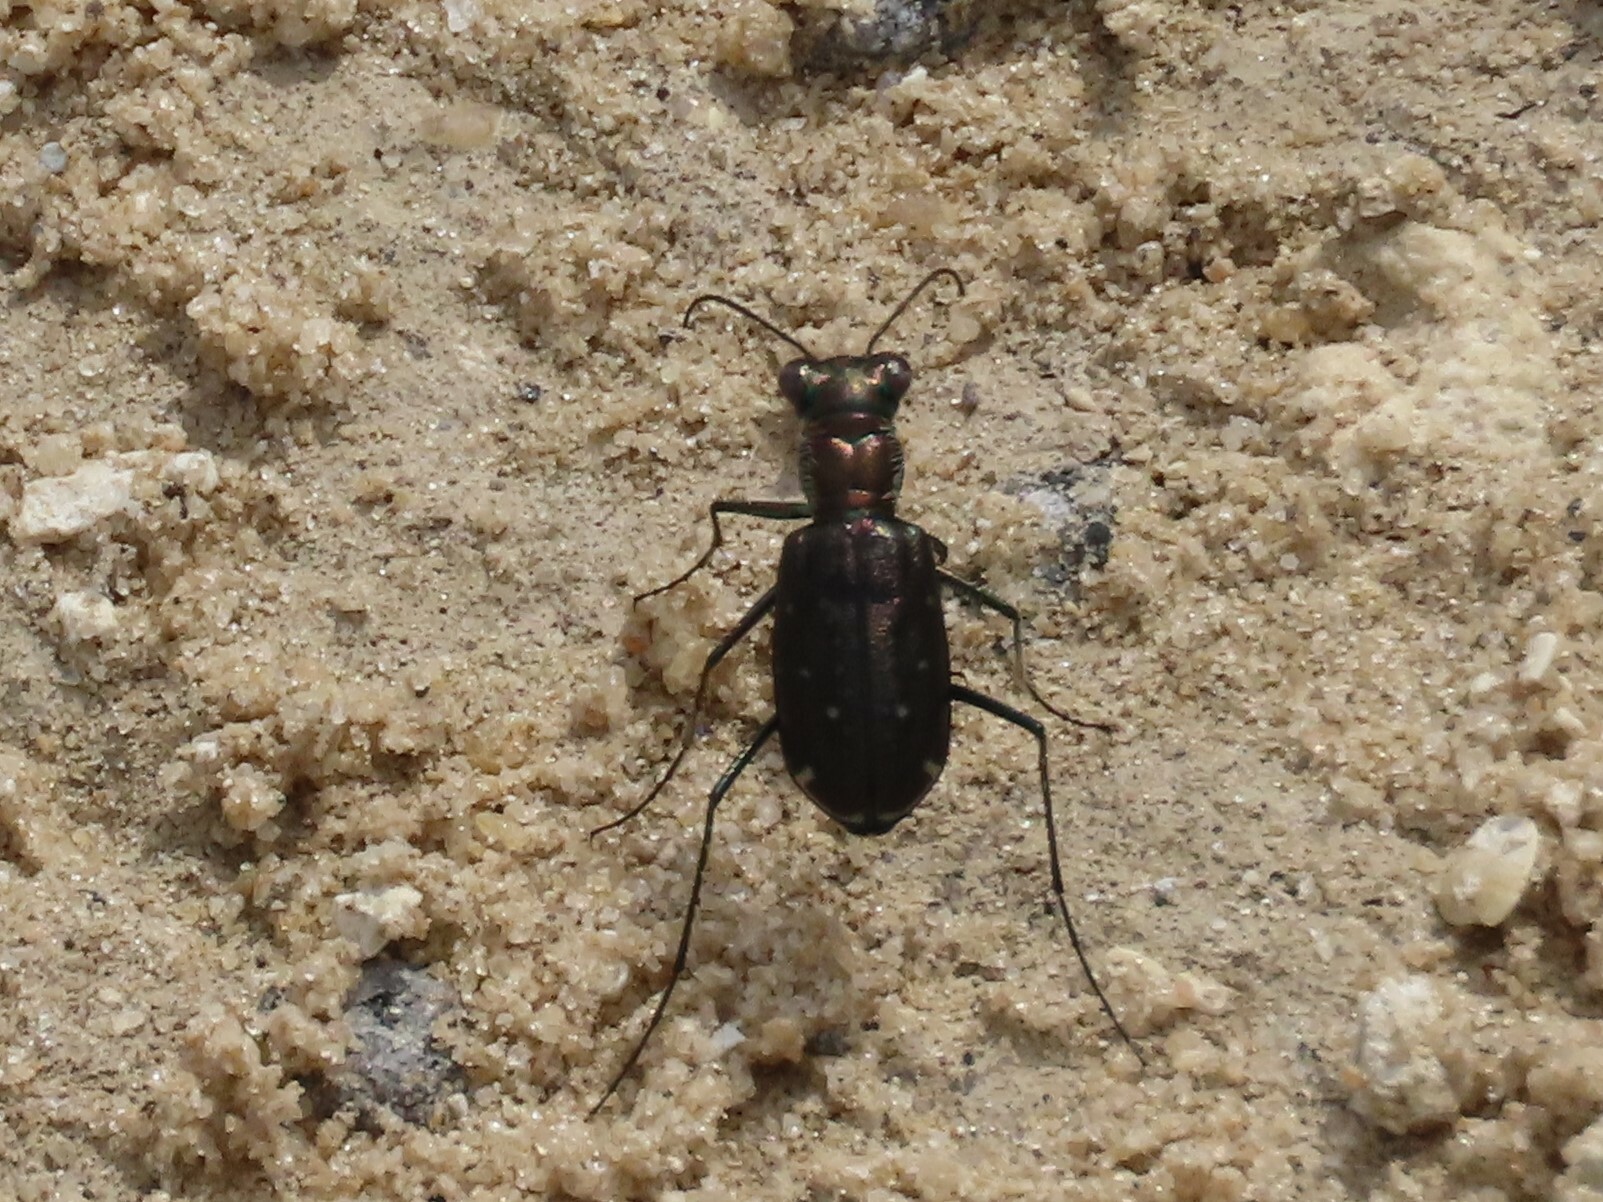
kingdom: Animalia
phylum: Arthropoda
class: Insecta
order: Coleoptera
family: Carabidae
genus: Cicindela
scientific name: Cicindela punctulata
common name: Punctured tiger beetle
